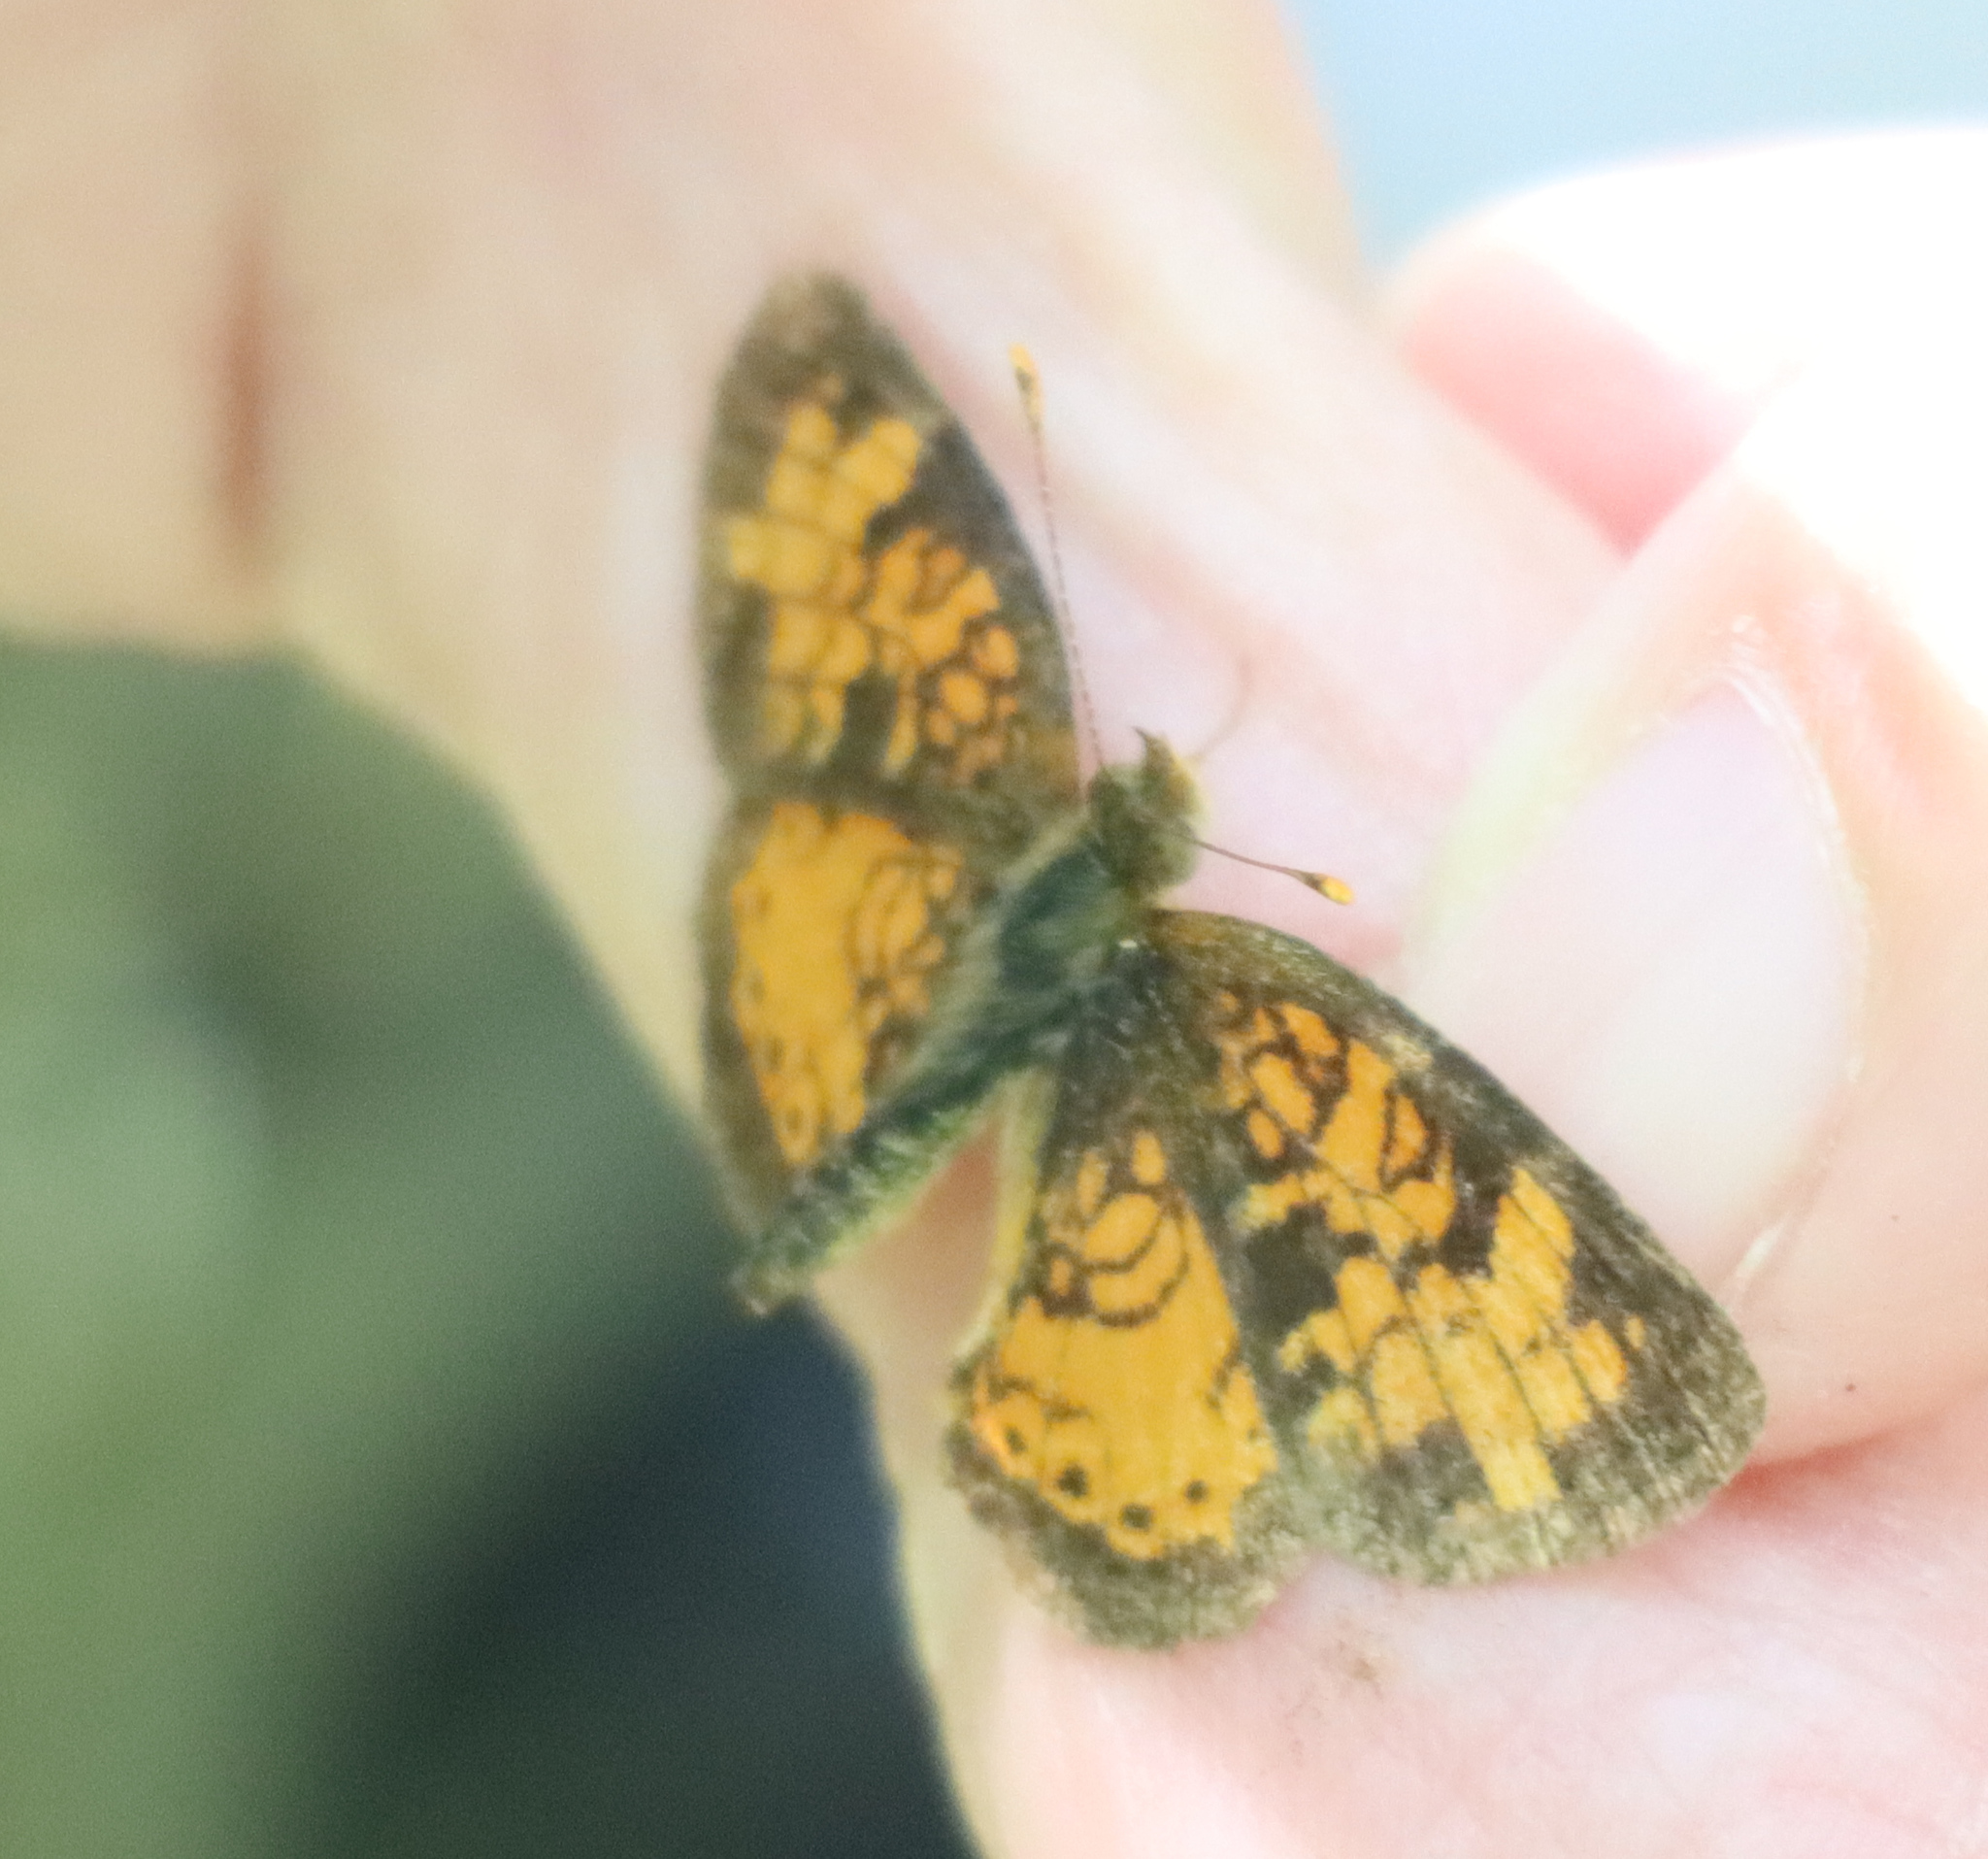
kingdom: Animalia
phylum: Arthropoda
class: Insecta
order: Lepidoptera
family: Nymphalidae
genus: Phyciodes
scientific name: Phyciodes tharos
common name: Pearl crescent
